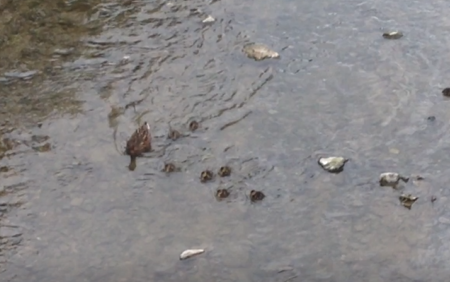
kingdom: Animalia
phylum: Chordata
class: Aves
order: Anseriformes
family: Anatidae
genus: Anas
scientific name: Anas platyrhynchos
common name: Mallard
